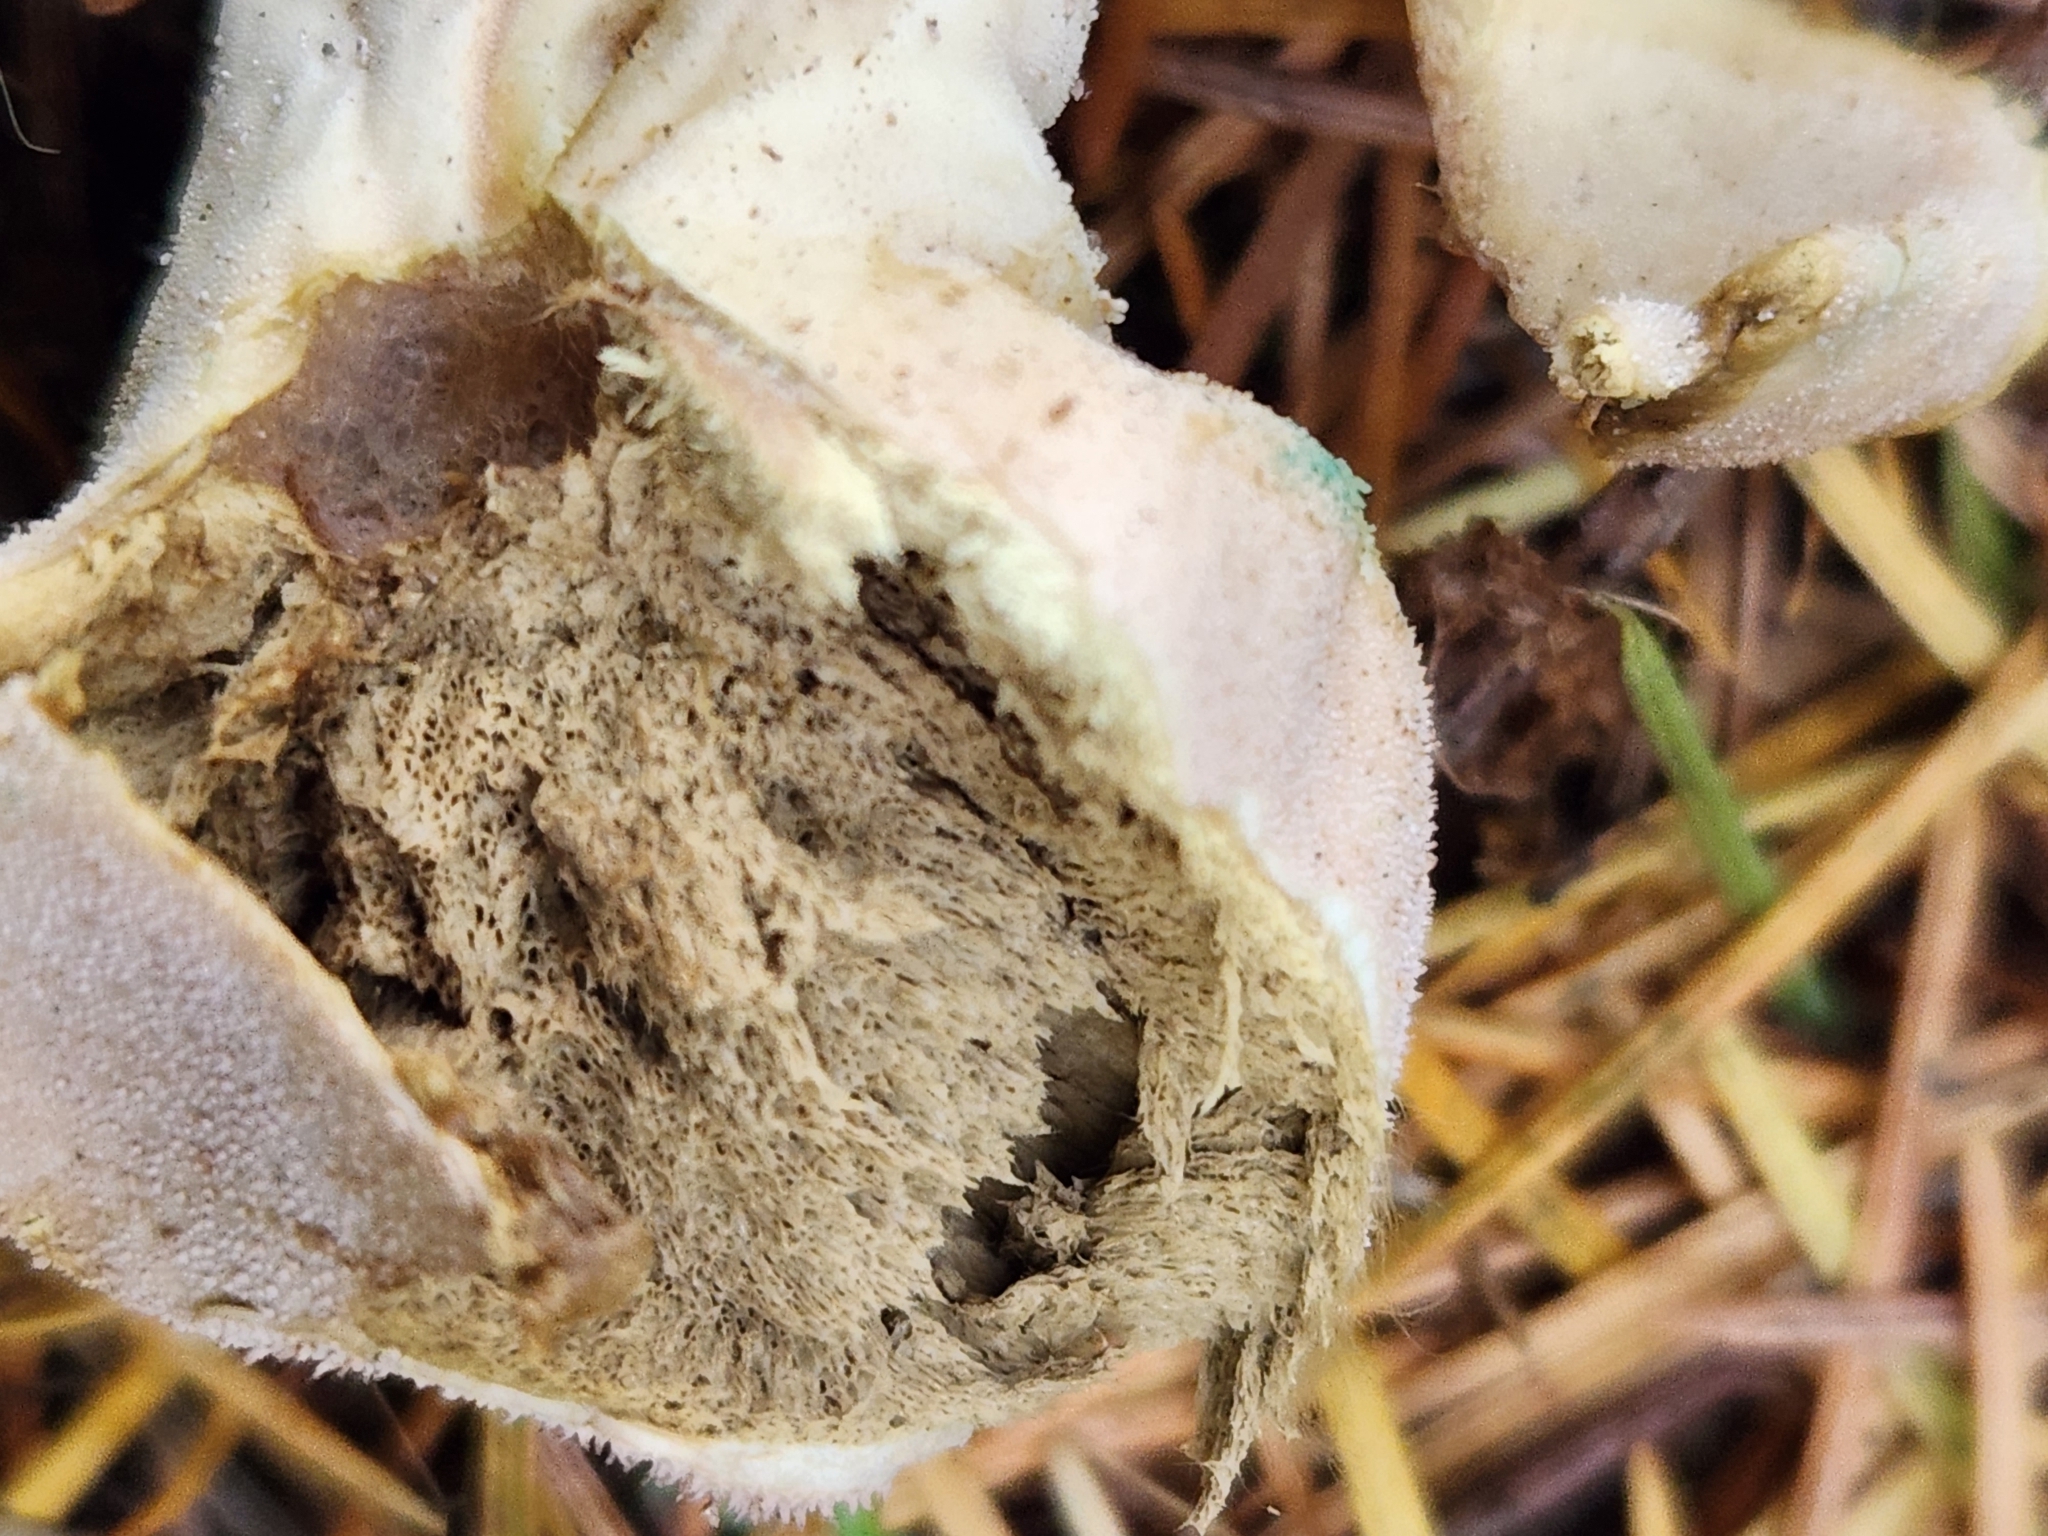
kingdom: Fungi
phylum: Basidiomycota
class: Agaricomycetes
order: Agaricales
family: Lycoperdaceae
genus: Lycoperdon
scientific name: Lycoperdon perlatum
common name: Common puffball
